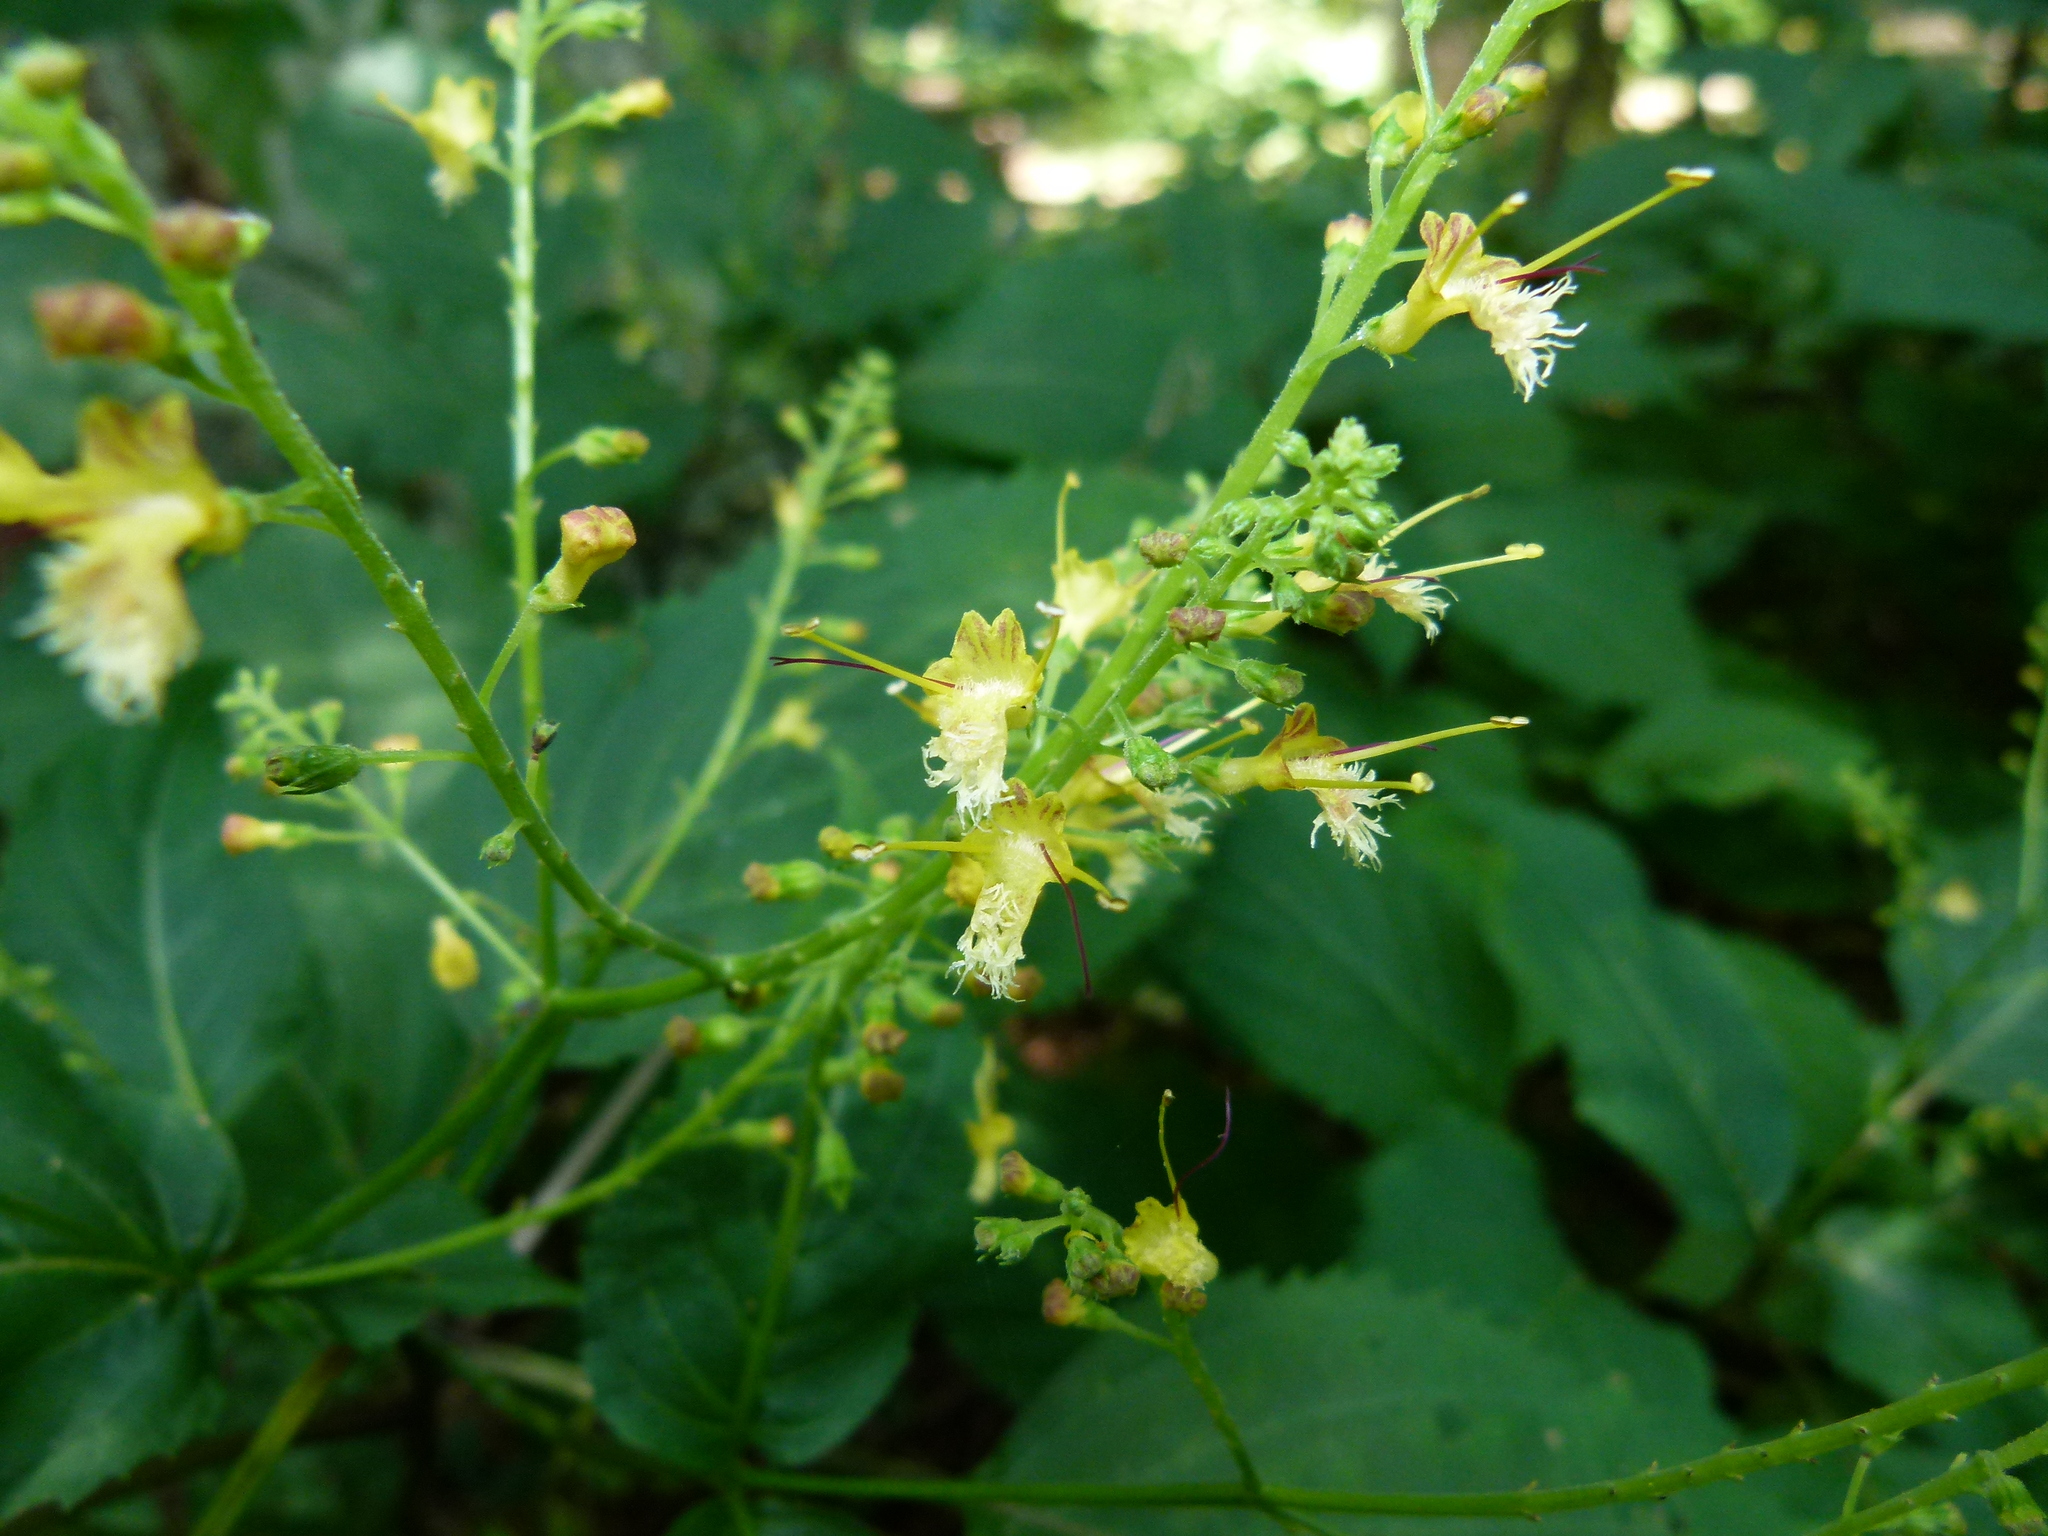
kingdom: Plantae
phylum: Tracheophyta
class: Magnoliopsida
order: Lamiales
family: Lamiaceae
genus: Collinsonia
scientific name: Collinsonia canadensis
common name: Northern horsebalm
